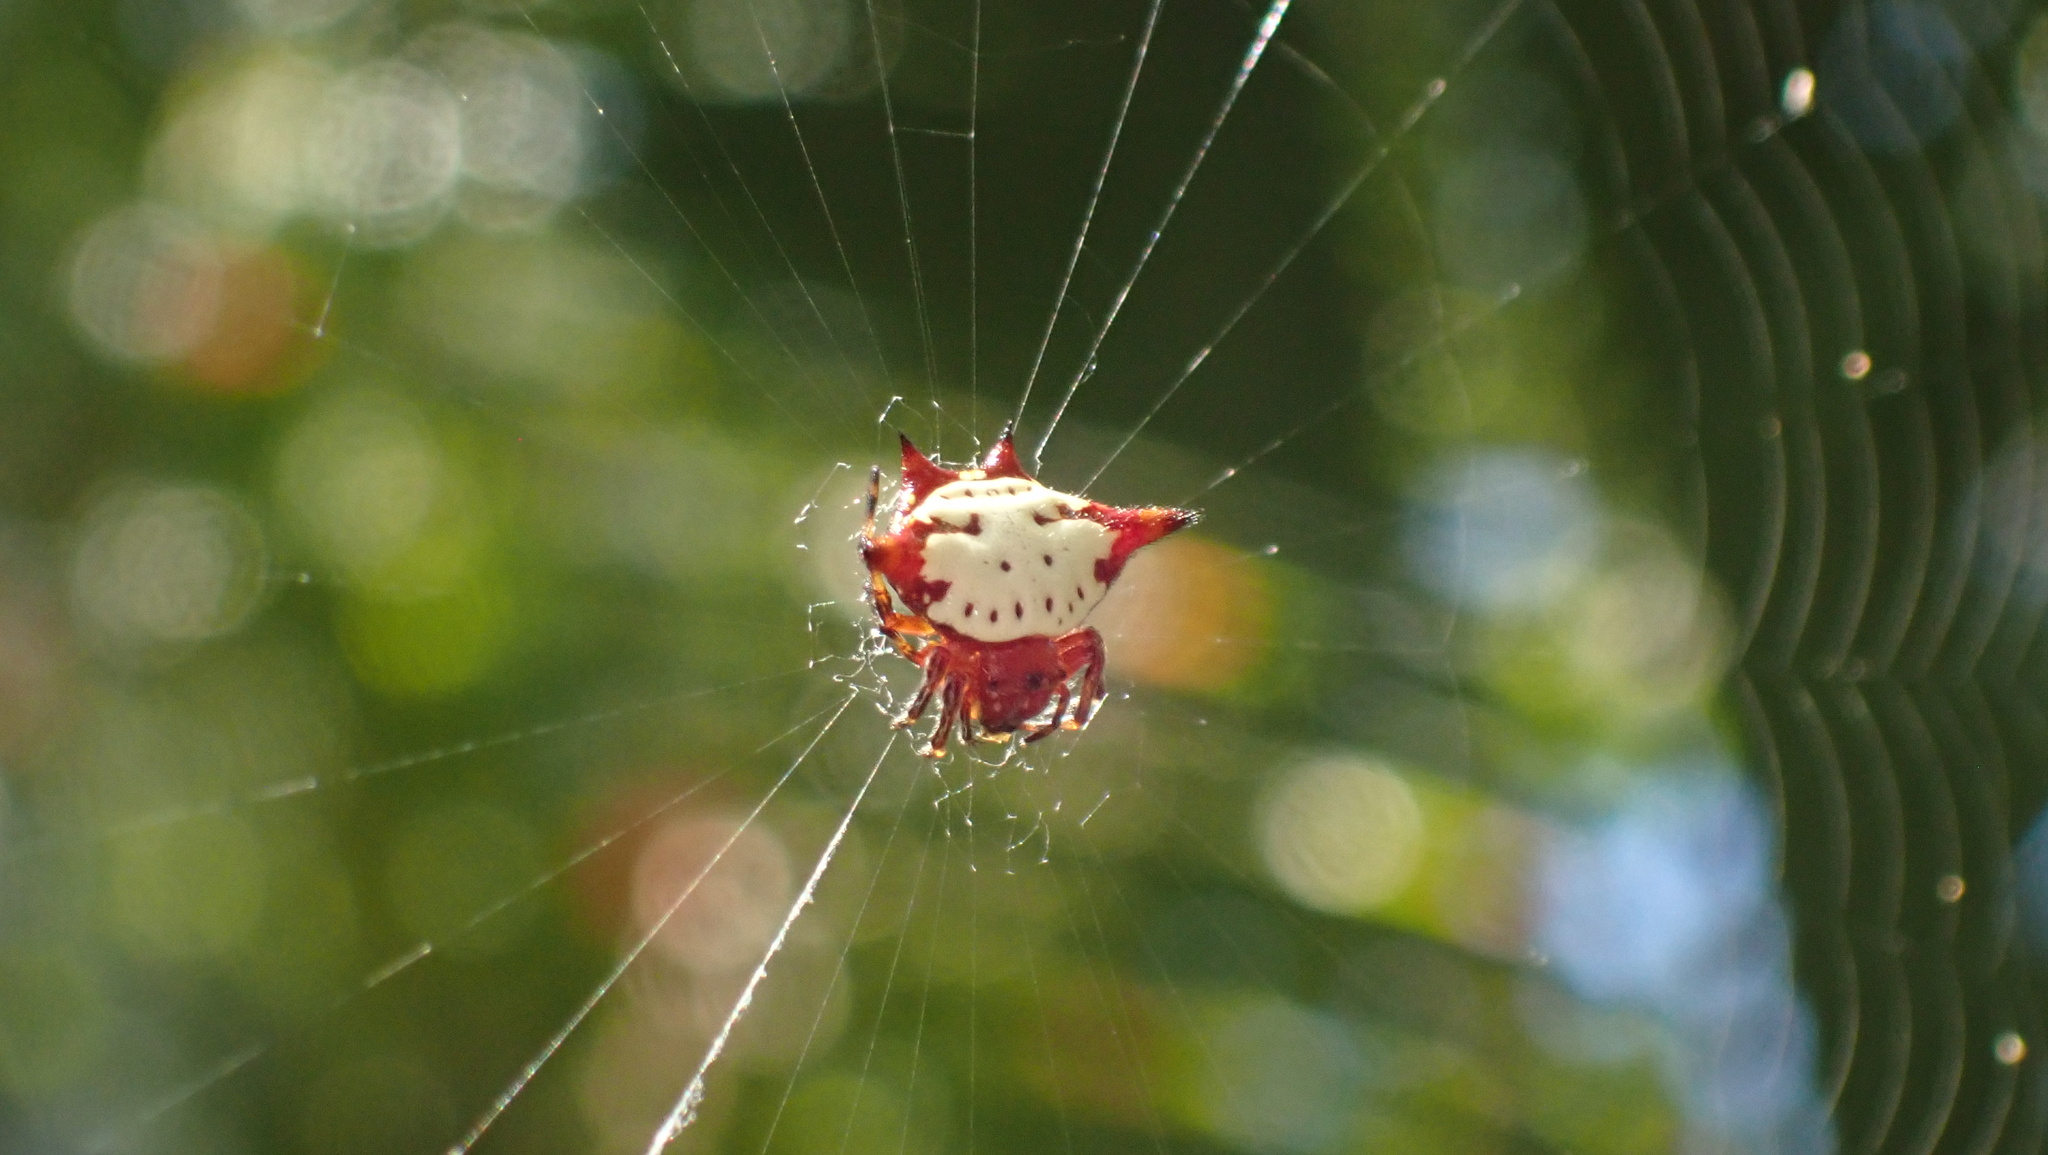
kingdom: Animalia
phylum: Arthropoda
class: Arachnida
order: Araneae
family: Araneidae
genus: Gasteracantha
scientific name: Gasteracantha cancriformis
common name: Orb weavers
